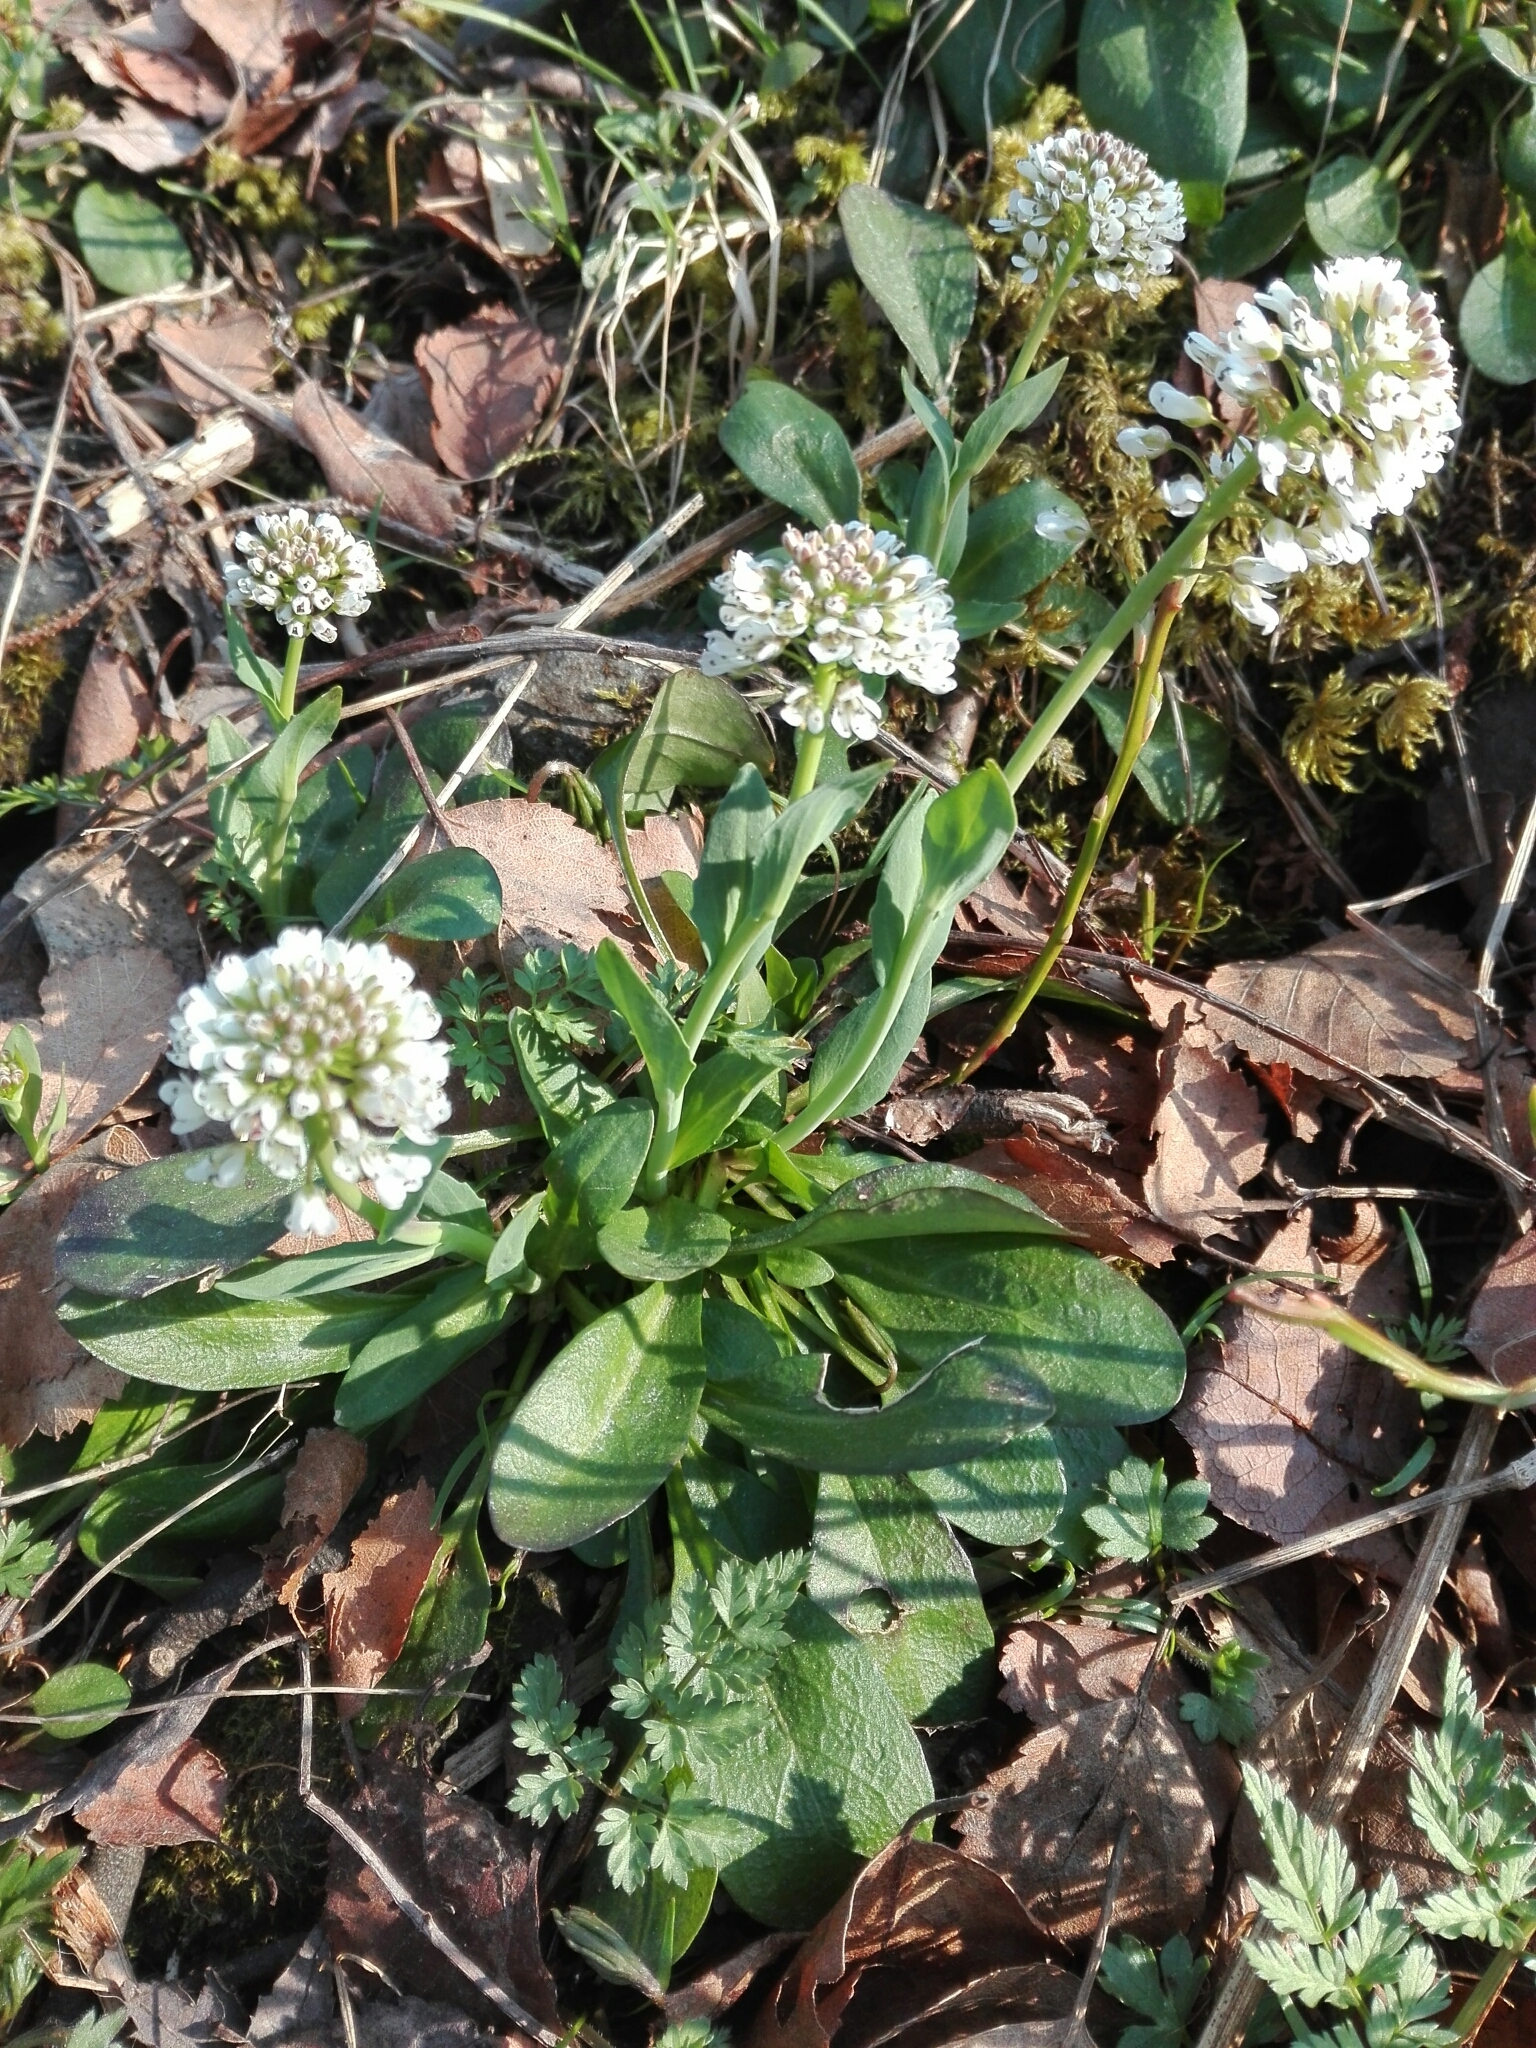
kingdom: Plantae
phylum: Tracheophyta
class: Magnoliopsida
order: Brassicales
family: Brassicaceae
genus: Noccaea
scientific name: Noccaea caerulescens
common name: Alpine pennycress
